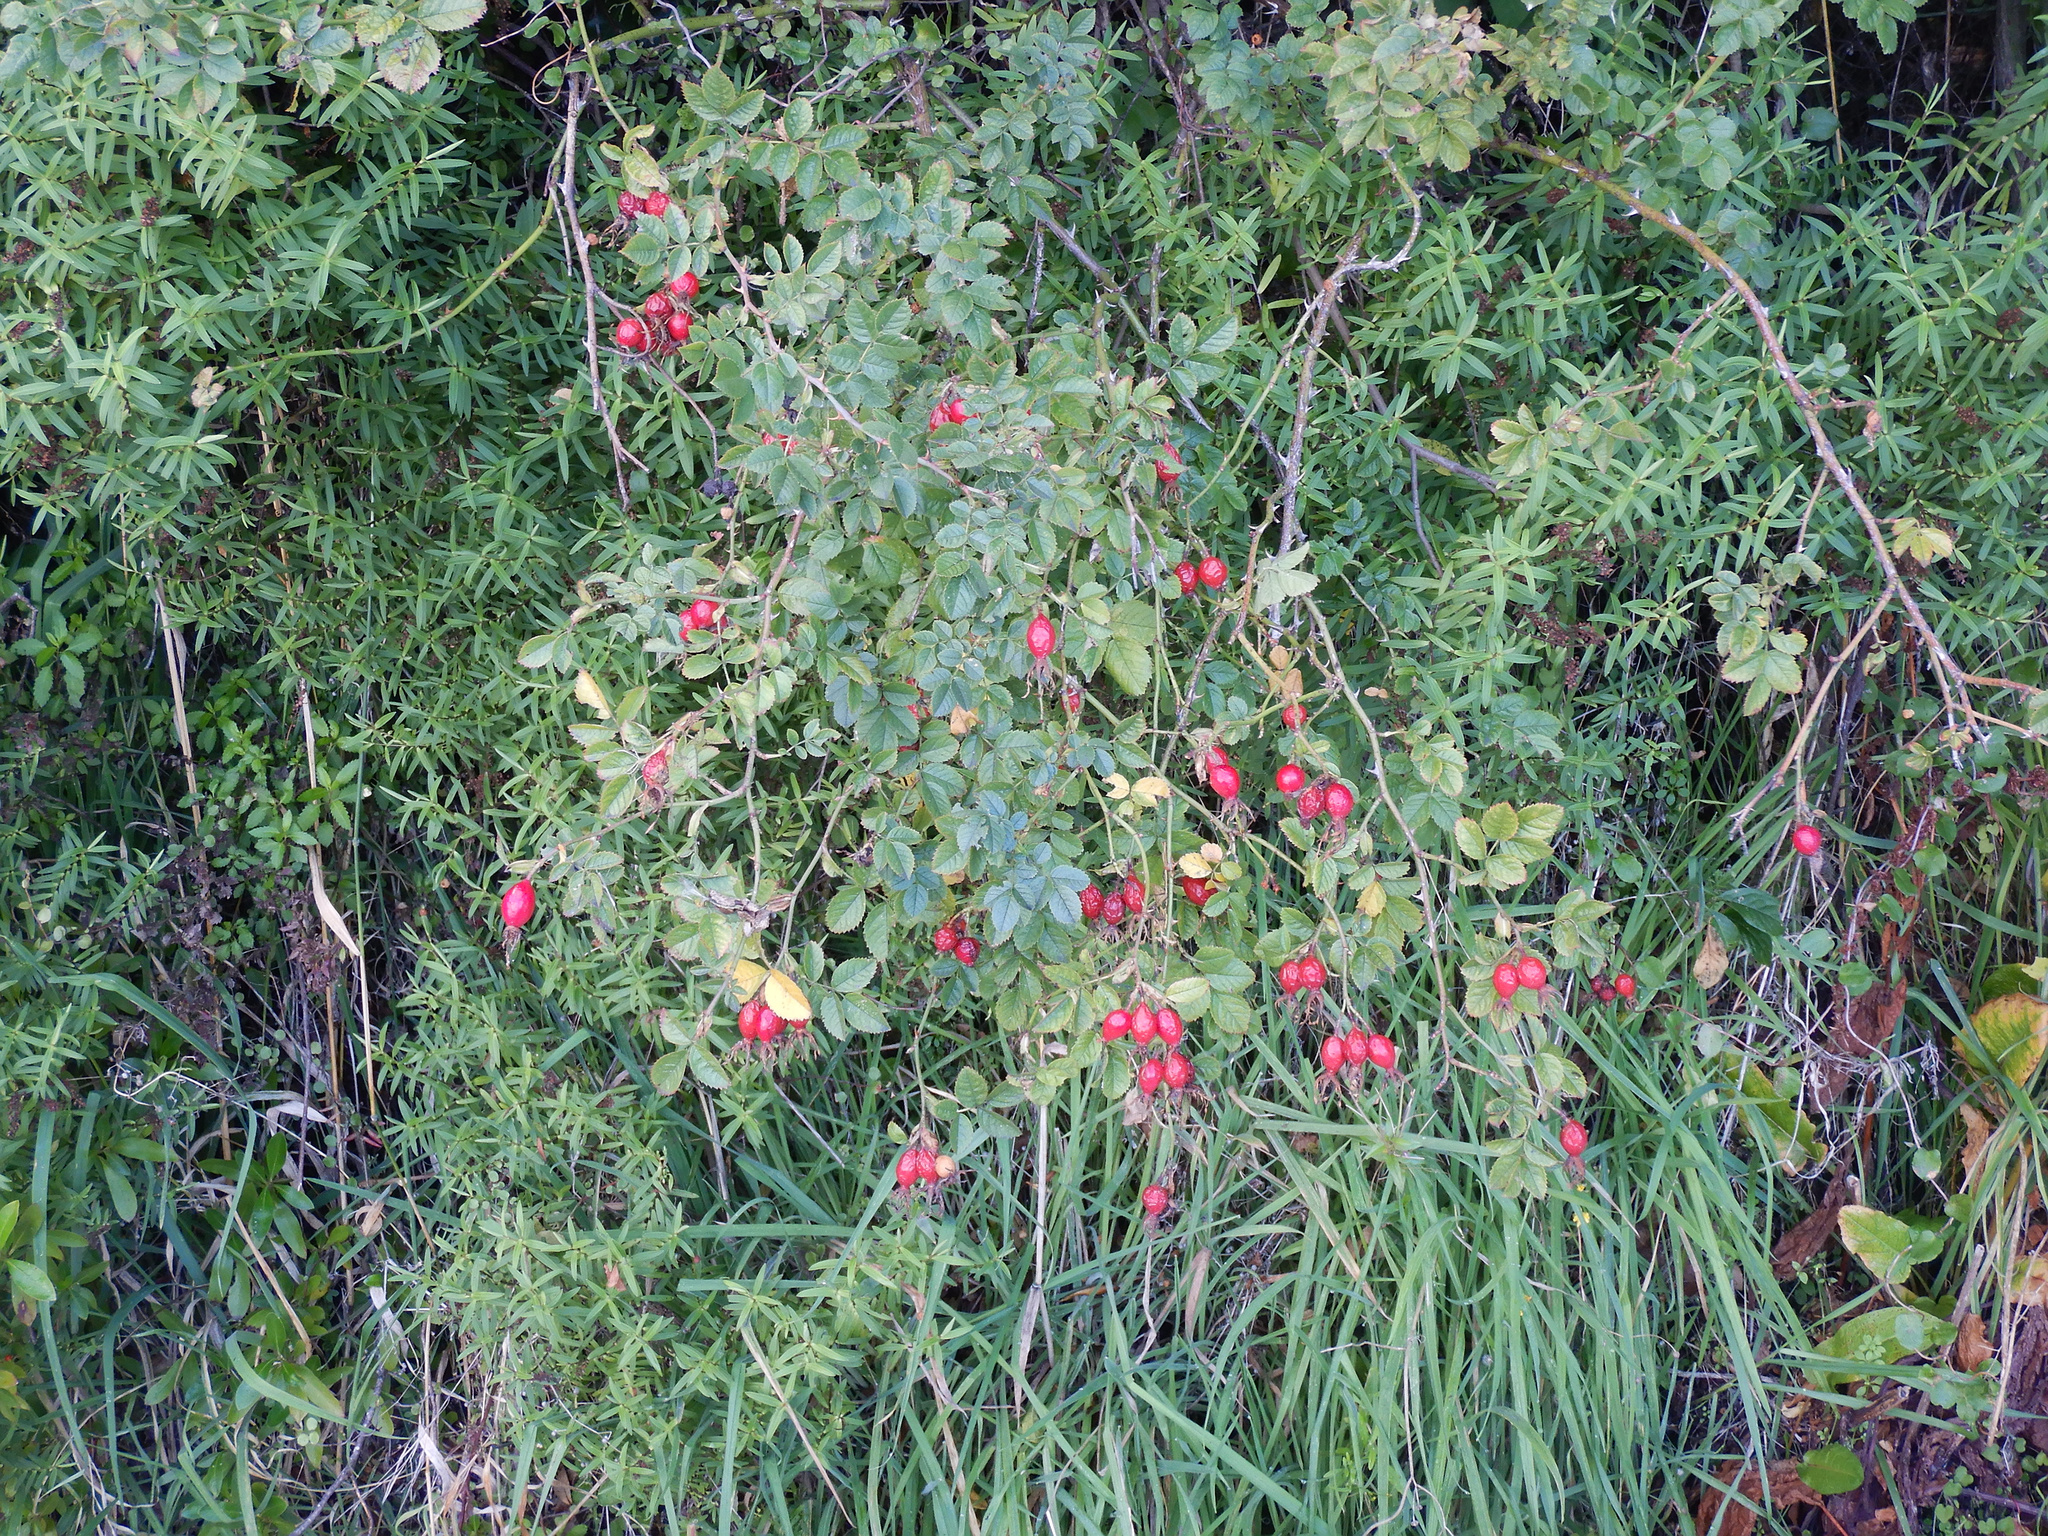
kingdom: Plantae
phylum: Tracheophyta
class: Magnoliopsida
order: Rosales
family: Rosaceae
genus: Rosa
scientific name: Rosa rubiginosa
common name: Sweet-briar
